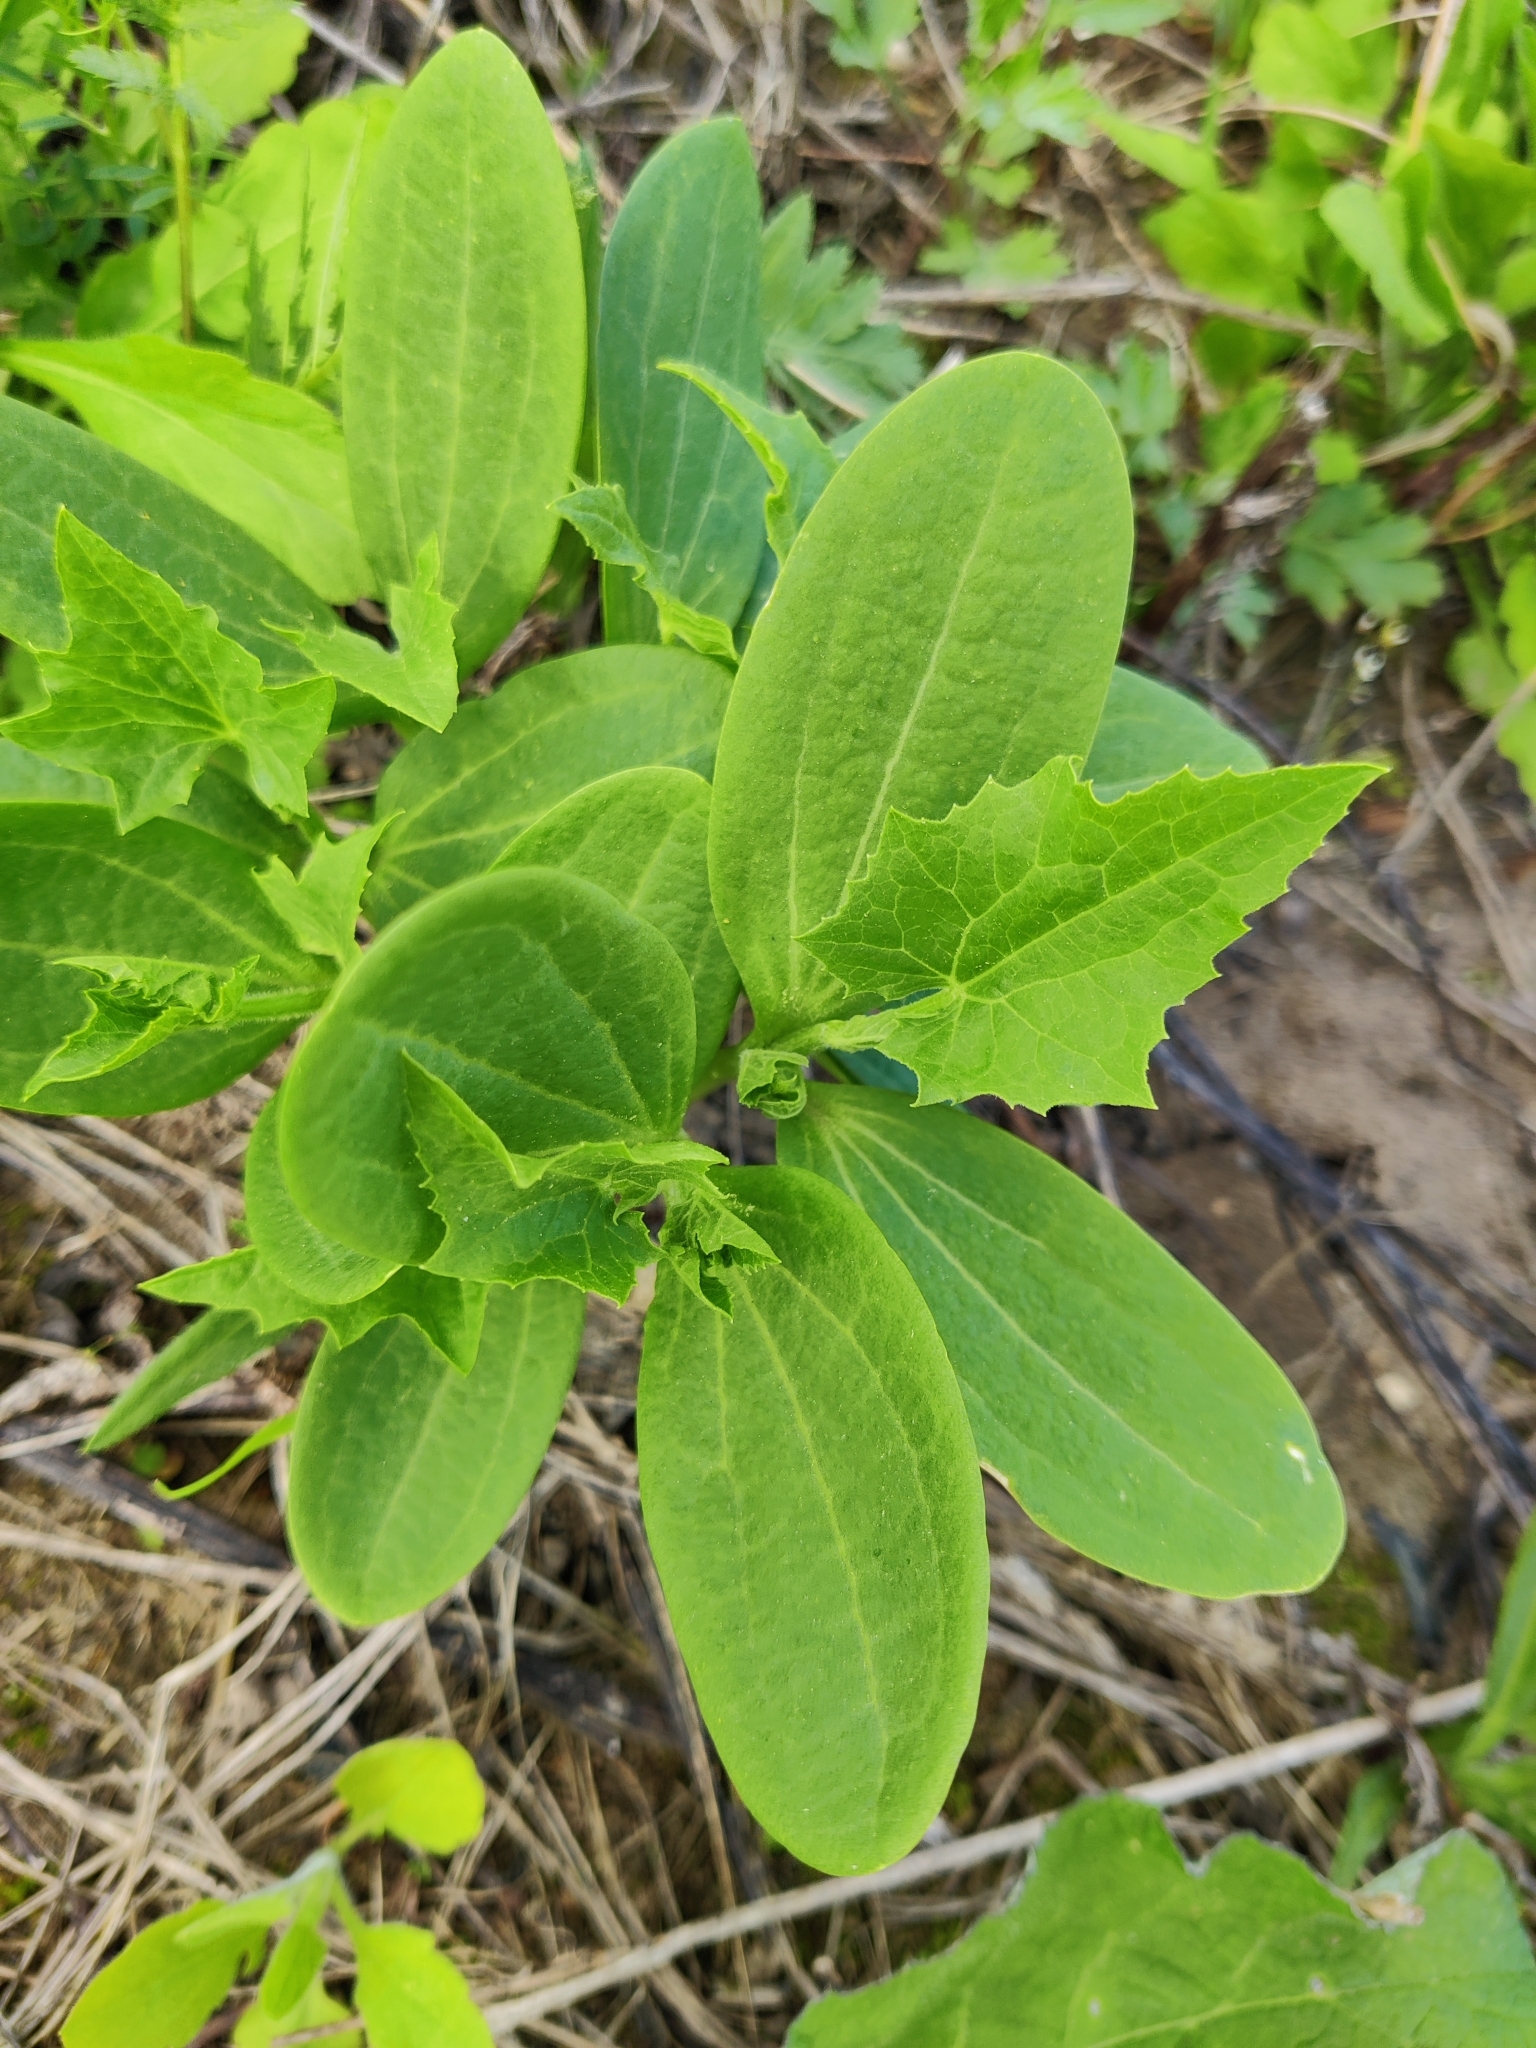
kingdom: Plantae
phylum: Tracheophyta
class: Magnoliopsida
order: Cucurbitales
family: Cucurbitaceae
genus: Echinocystis
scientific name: Echinocystis lobata
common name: Wild cucumber
